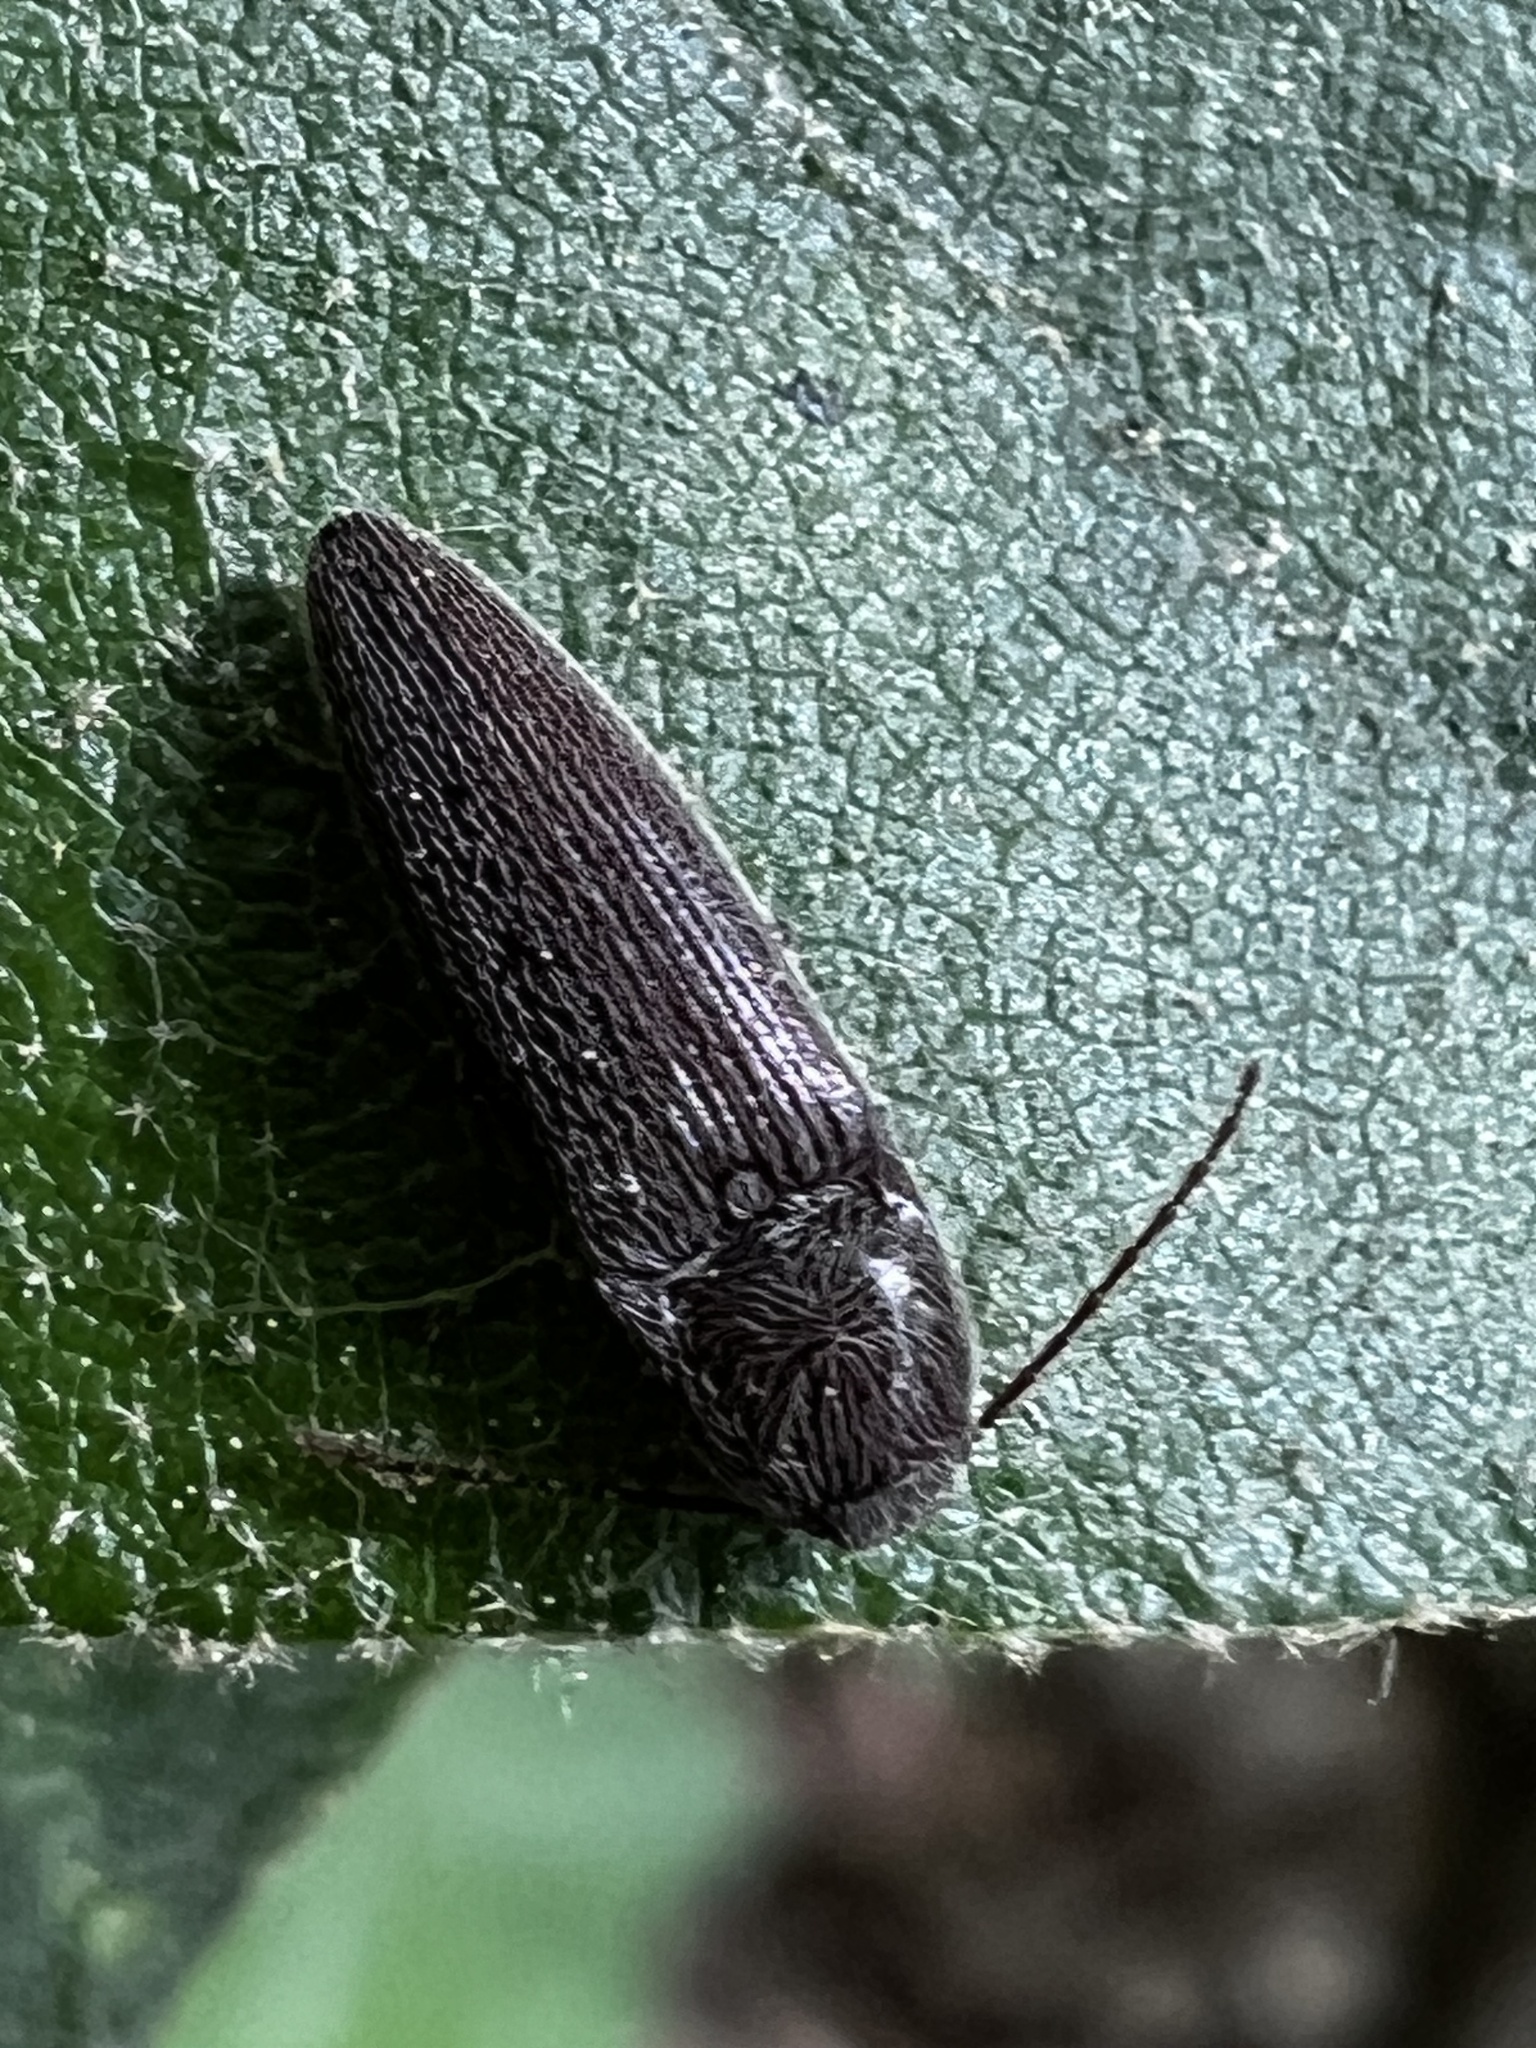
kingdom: Animalia
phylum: Arthropoda
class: Insecta
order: Coleoptera
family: Elateridae
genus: Melanotus
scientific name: Melanotus americanus
